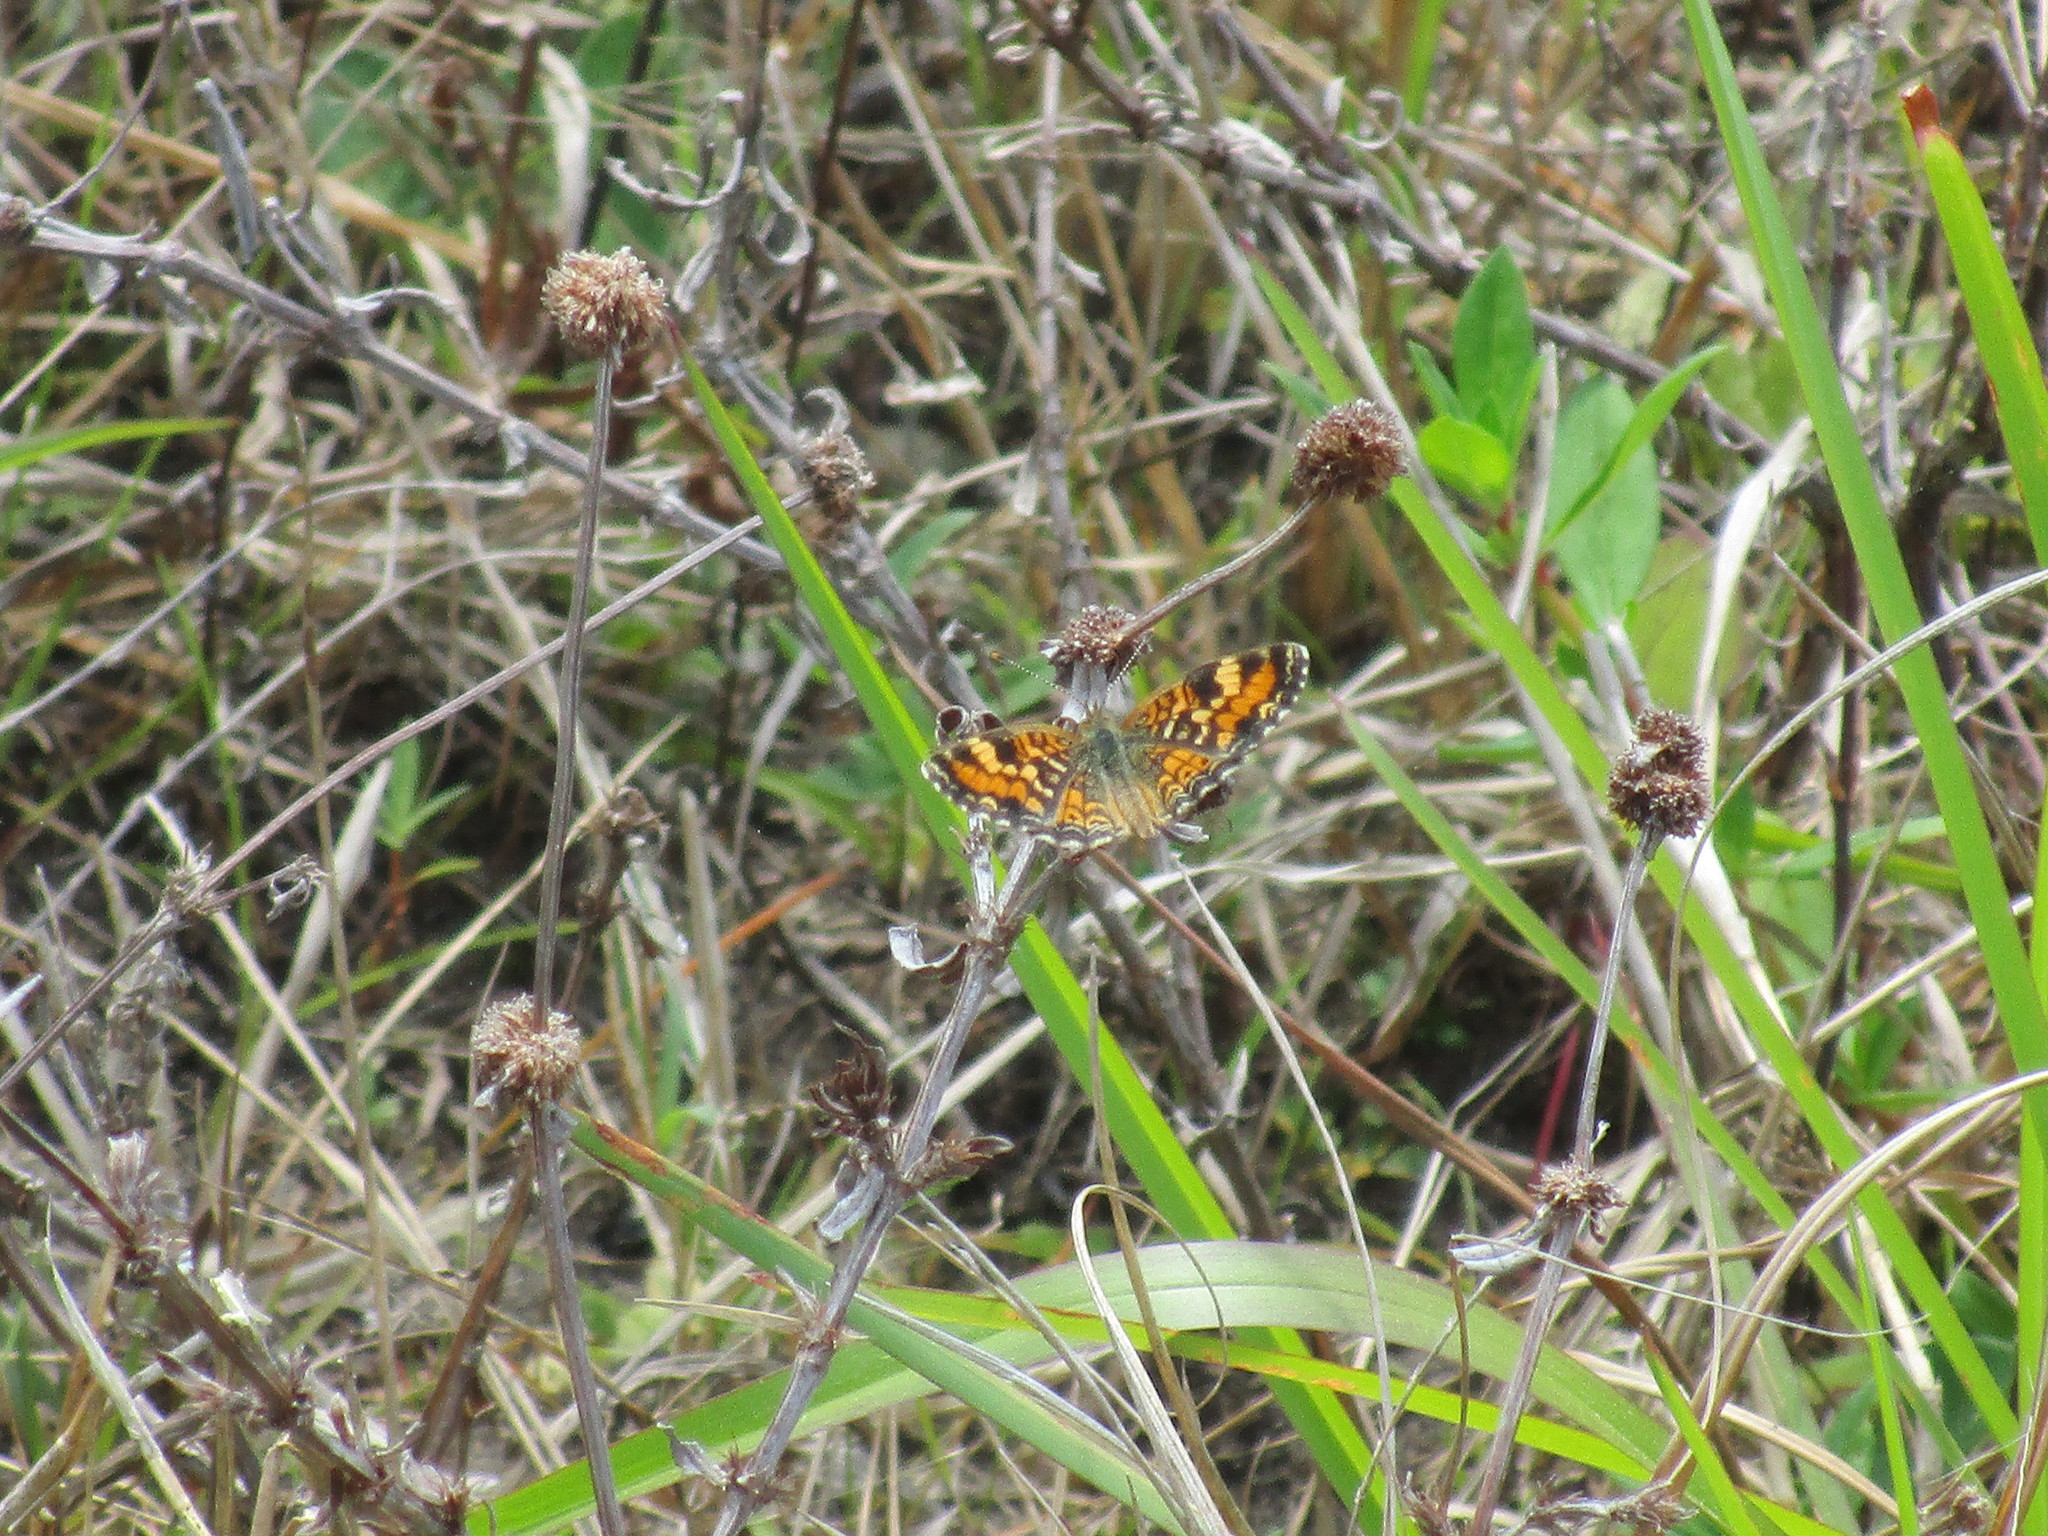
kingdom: Animalia
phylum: Arthropoda
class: Insecta
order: Lepidoptera
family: Nymphalidae
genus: Phyciodes
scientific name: Phyciodes phaon
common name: Phaon crescent
